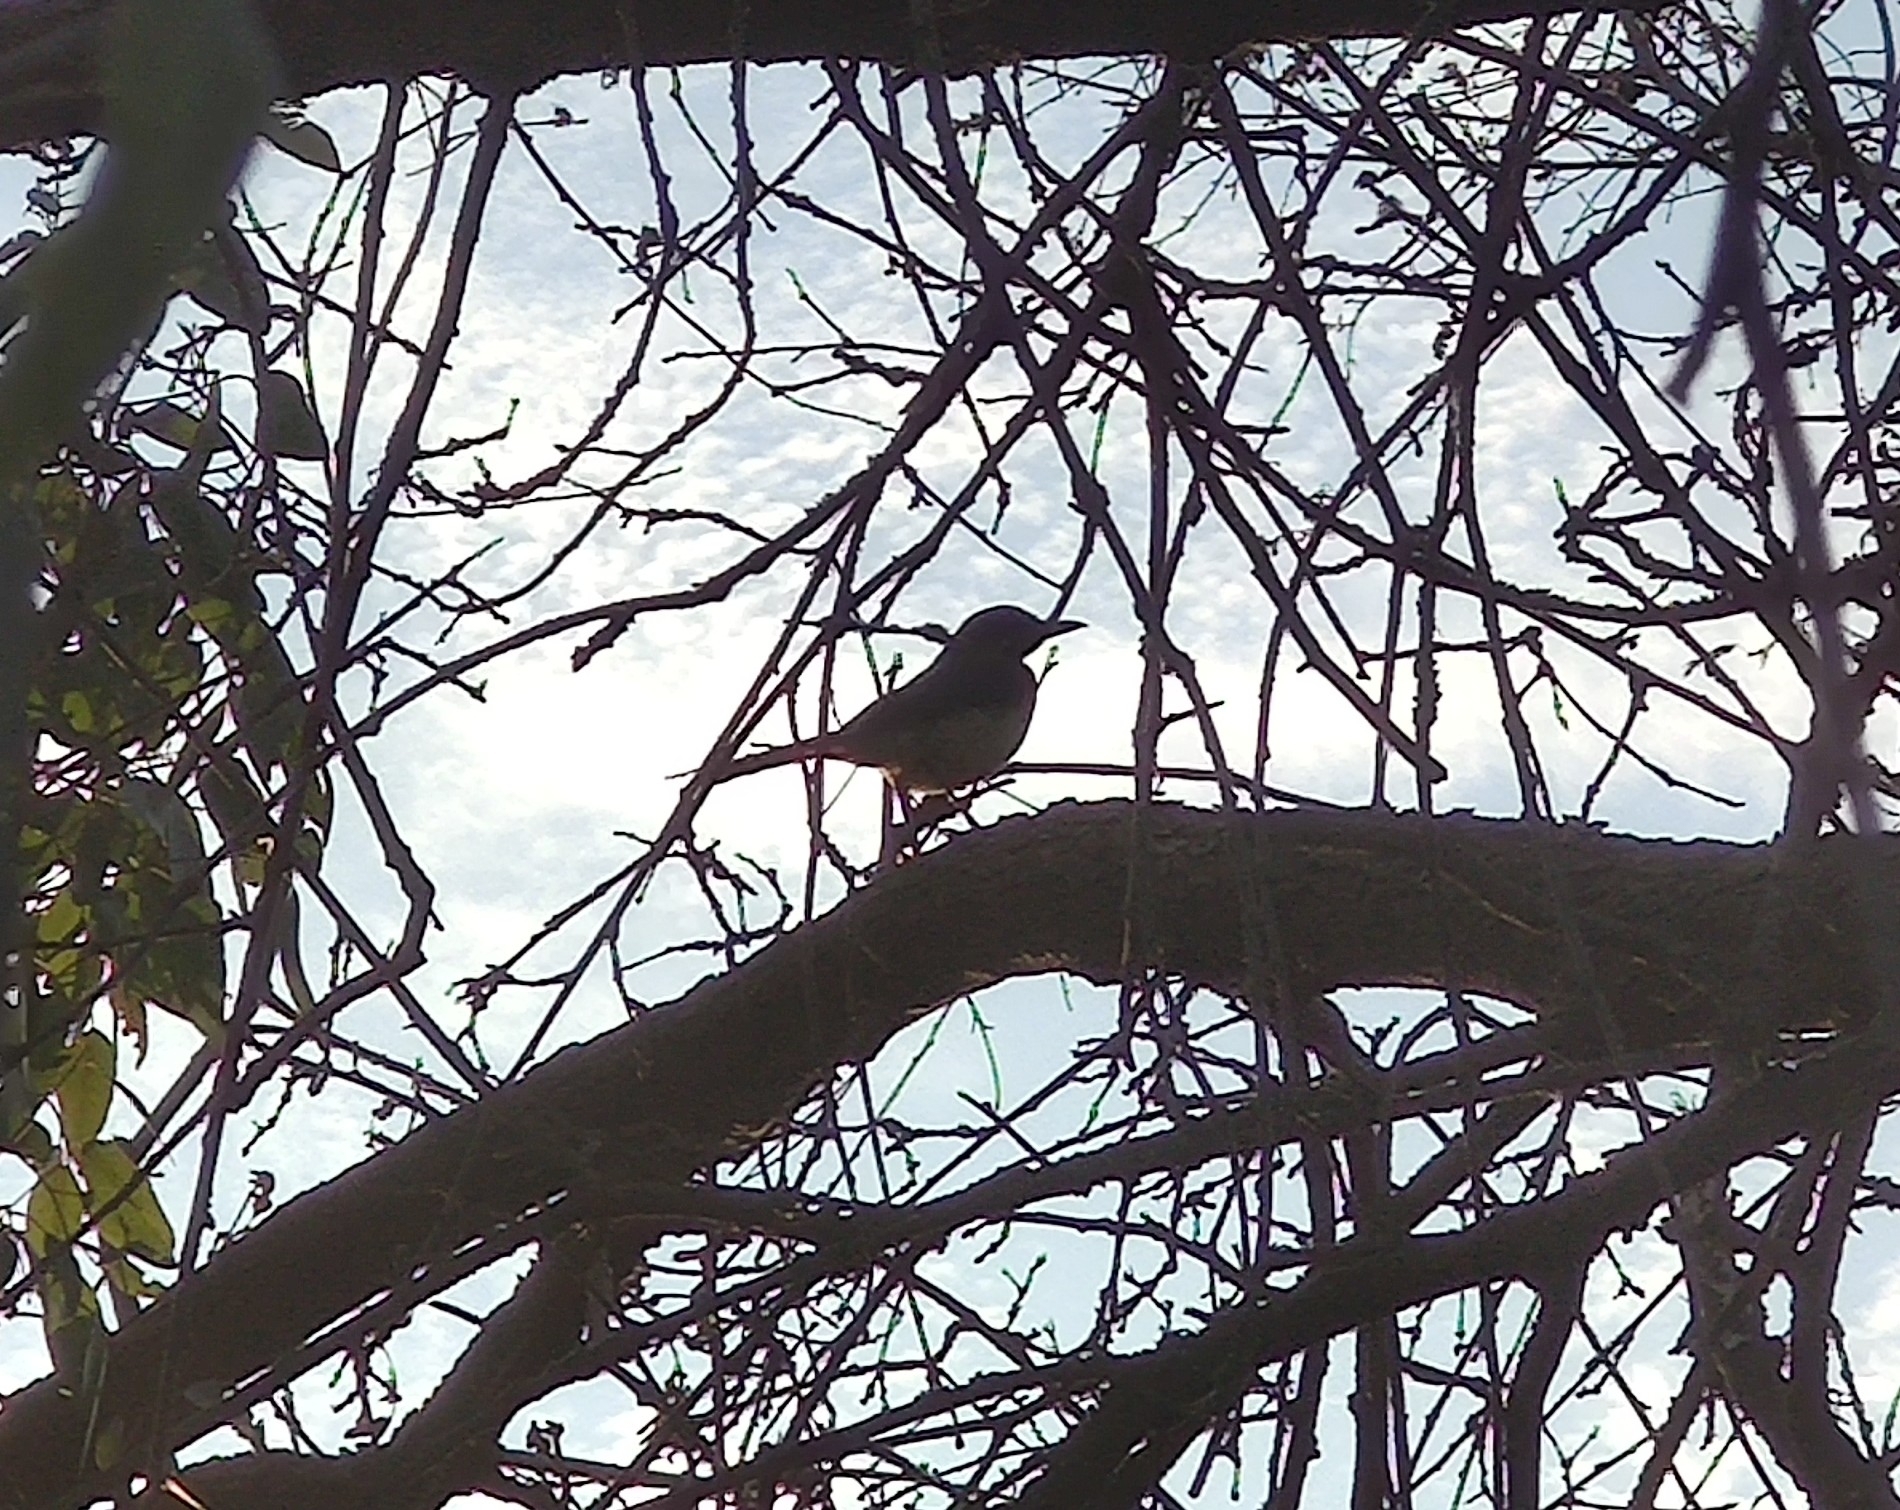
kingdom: Animalia
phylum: Chordata
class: Aves
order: Passeriformes
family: Corvidae
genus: Aphelocoma
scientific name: Aphelocoma californica
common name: California scrub-jay
